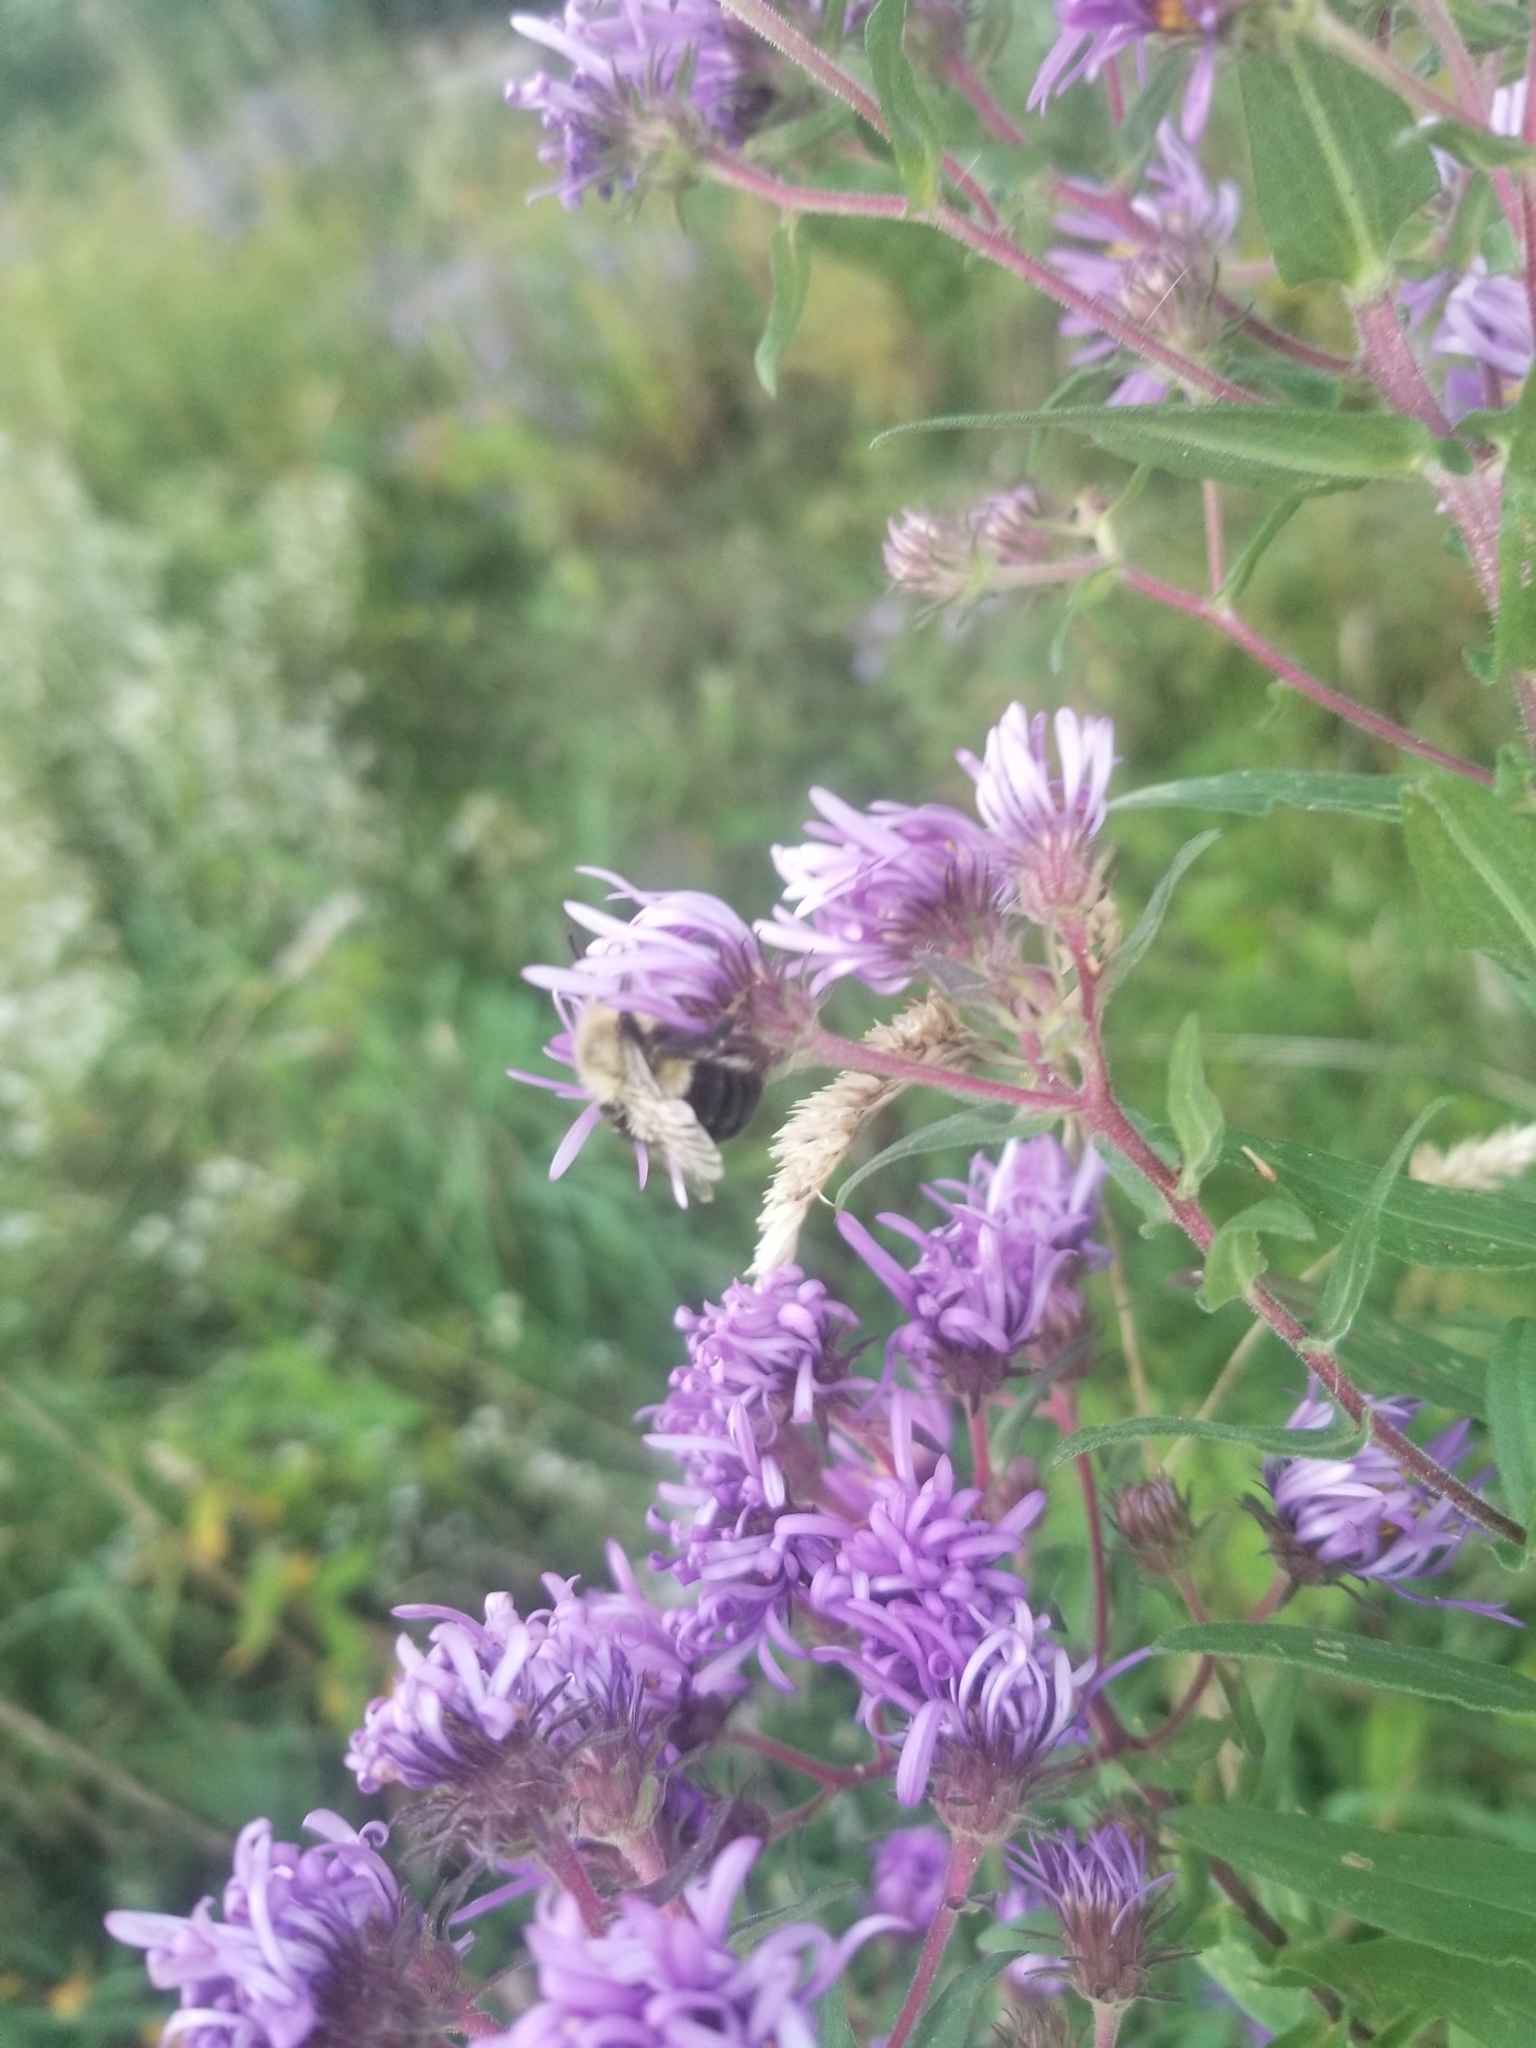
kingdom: Animalia
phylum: Arthropoda
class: Insecta
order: Hymenoptera
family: Apidae
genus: Bombus
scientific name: Bombus impatiens
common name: Common eastern bumble bee
